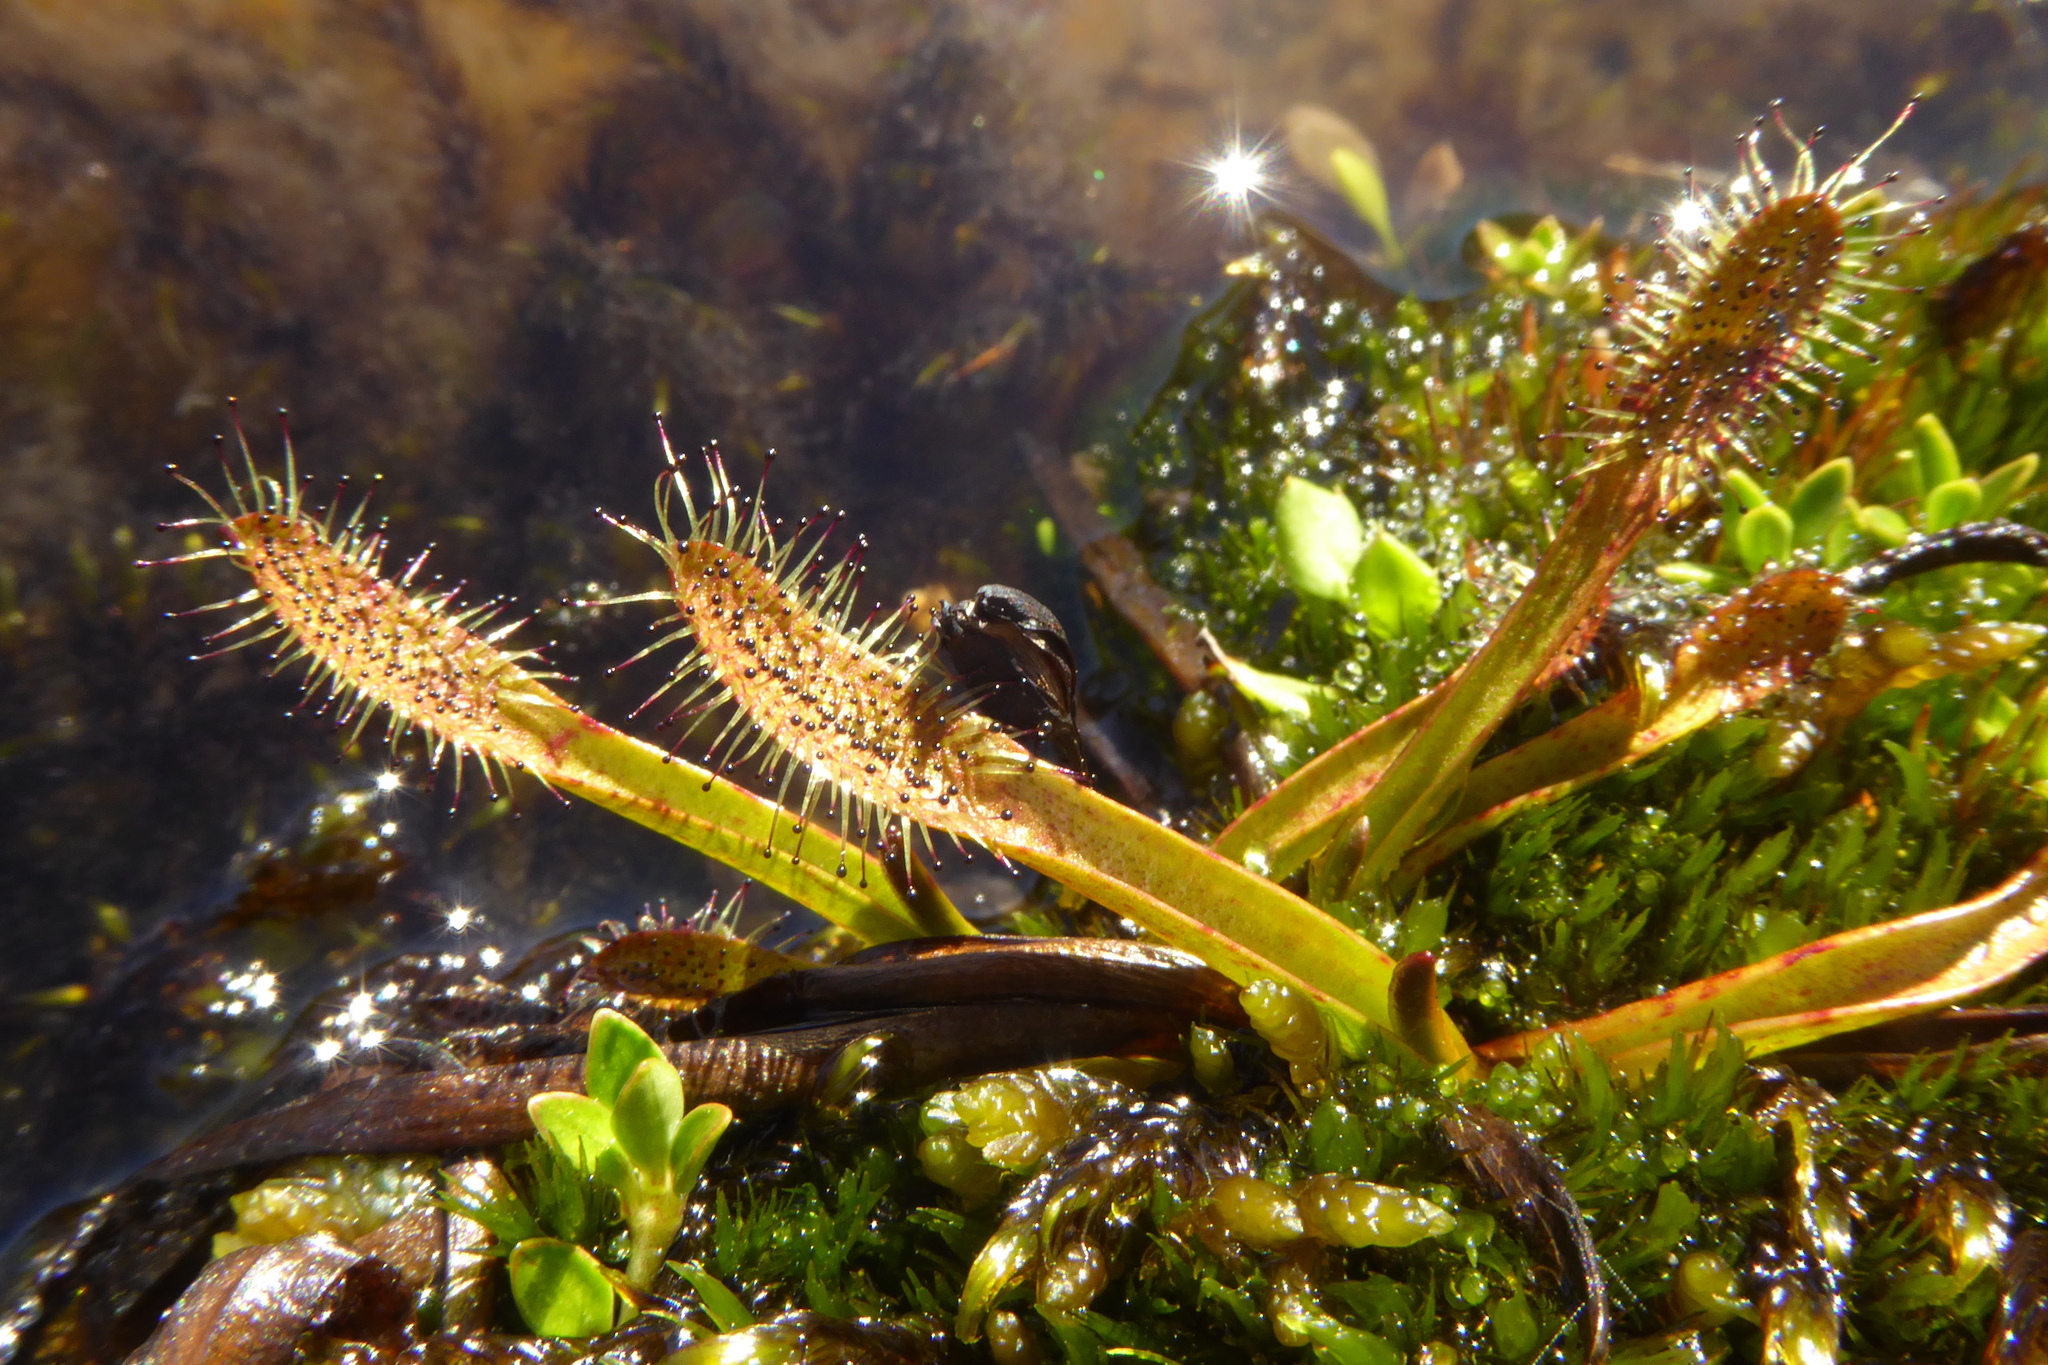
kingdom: Plantae
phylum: Tracheophyta
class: Magnoliopsida
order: Caryophyllales
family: Droseraceae
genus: Drosera
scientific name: Drosera arcturi
